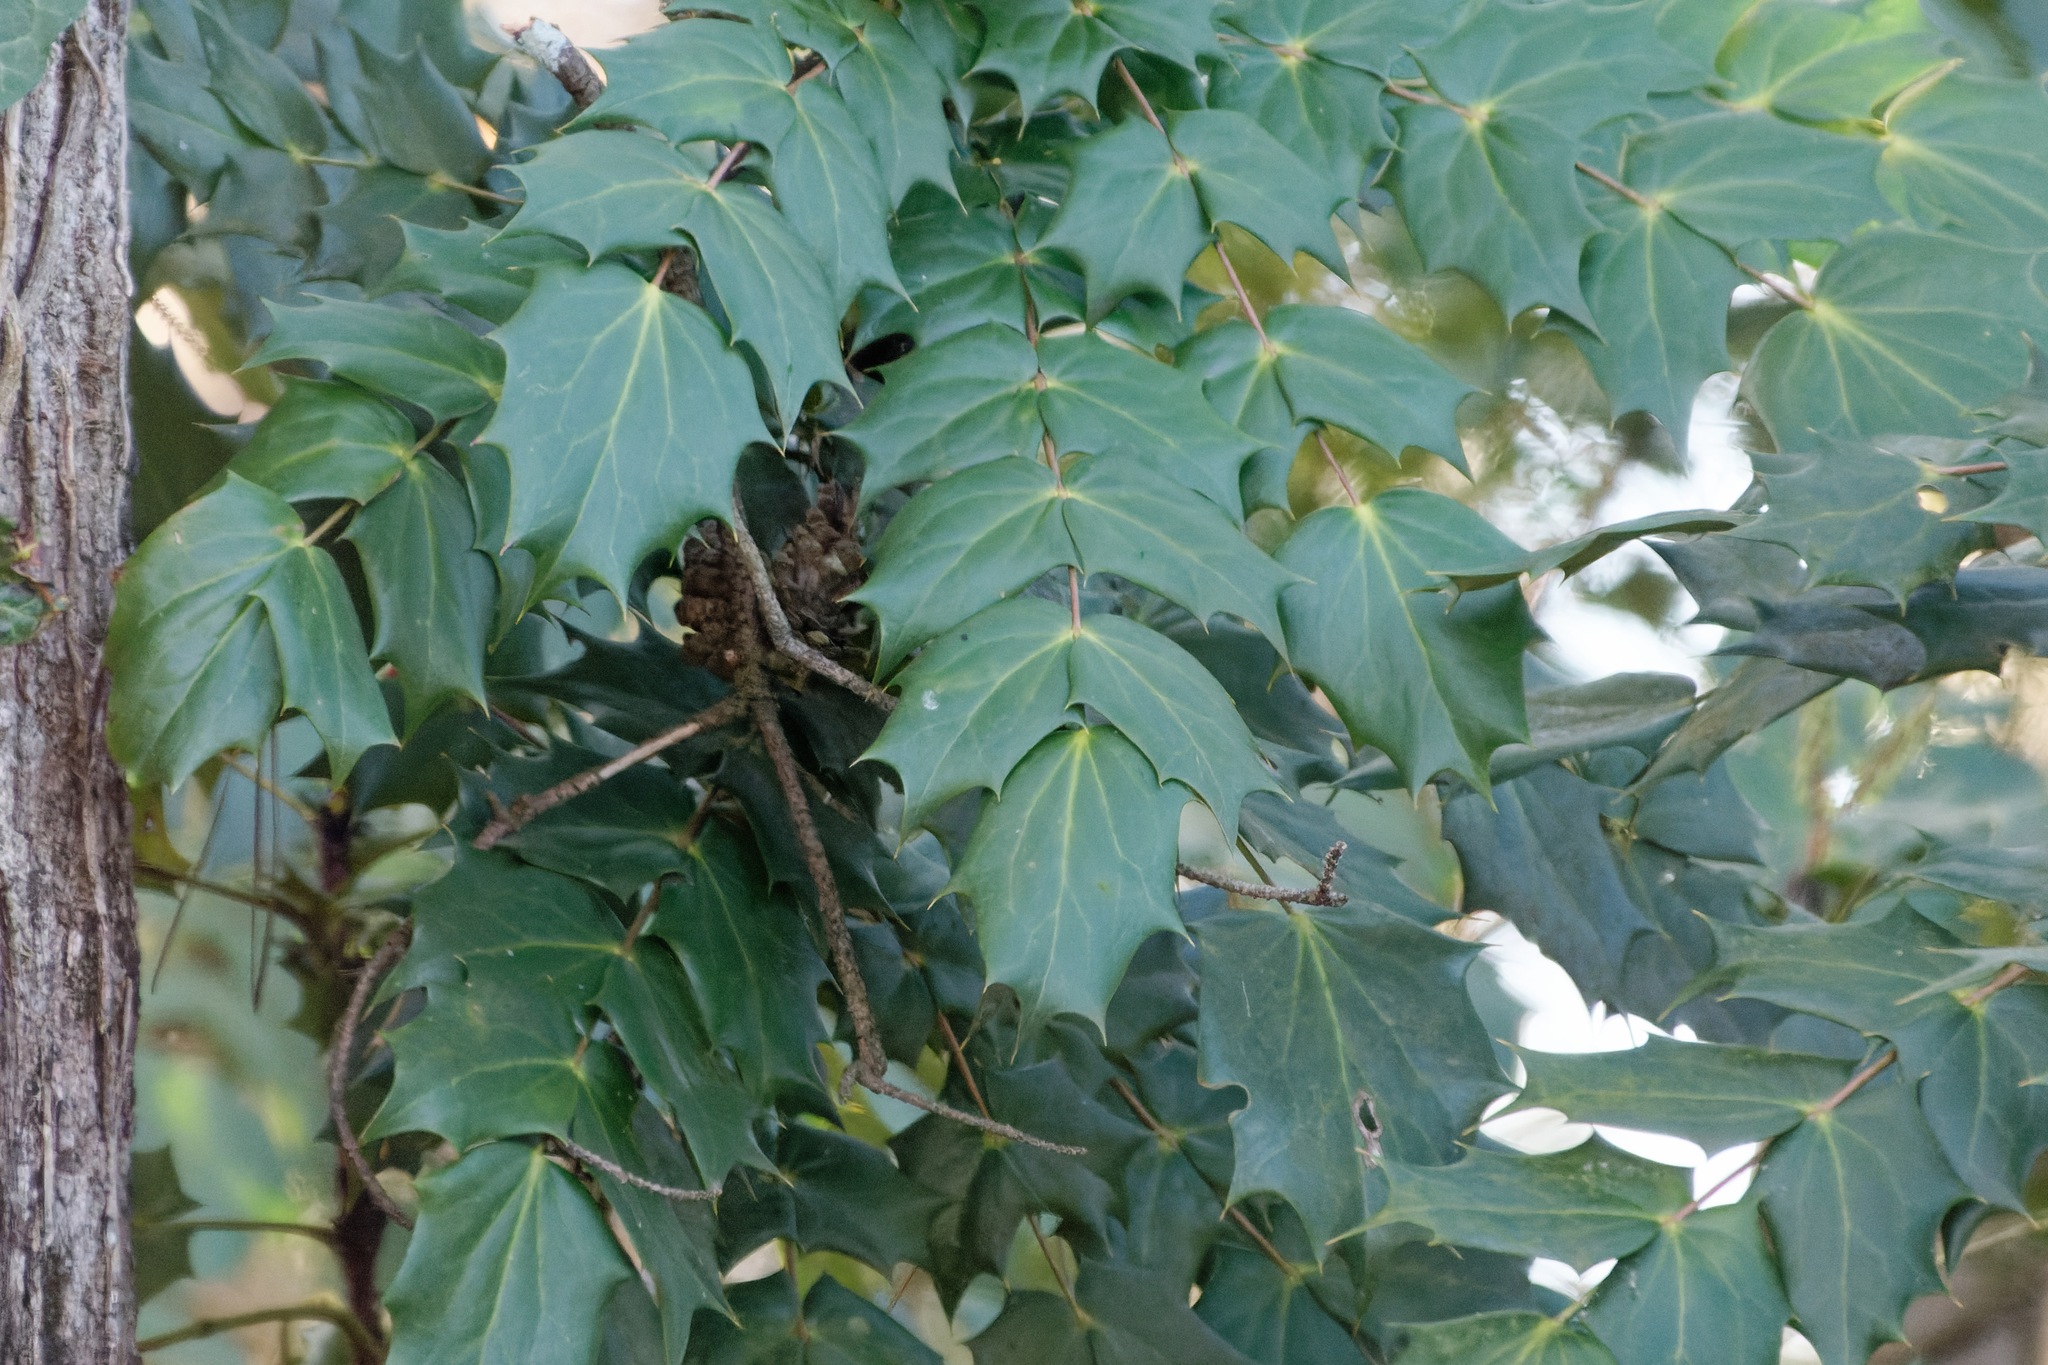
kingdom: Plantae
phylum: Tracheophyta
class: Magnoliopsida
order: Ranunculales
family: Berberidaceae
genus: Mahonia
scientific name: Mahonia bealei
